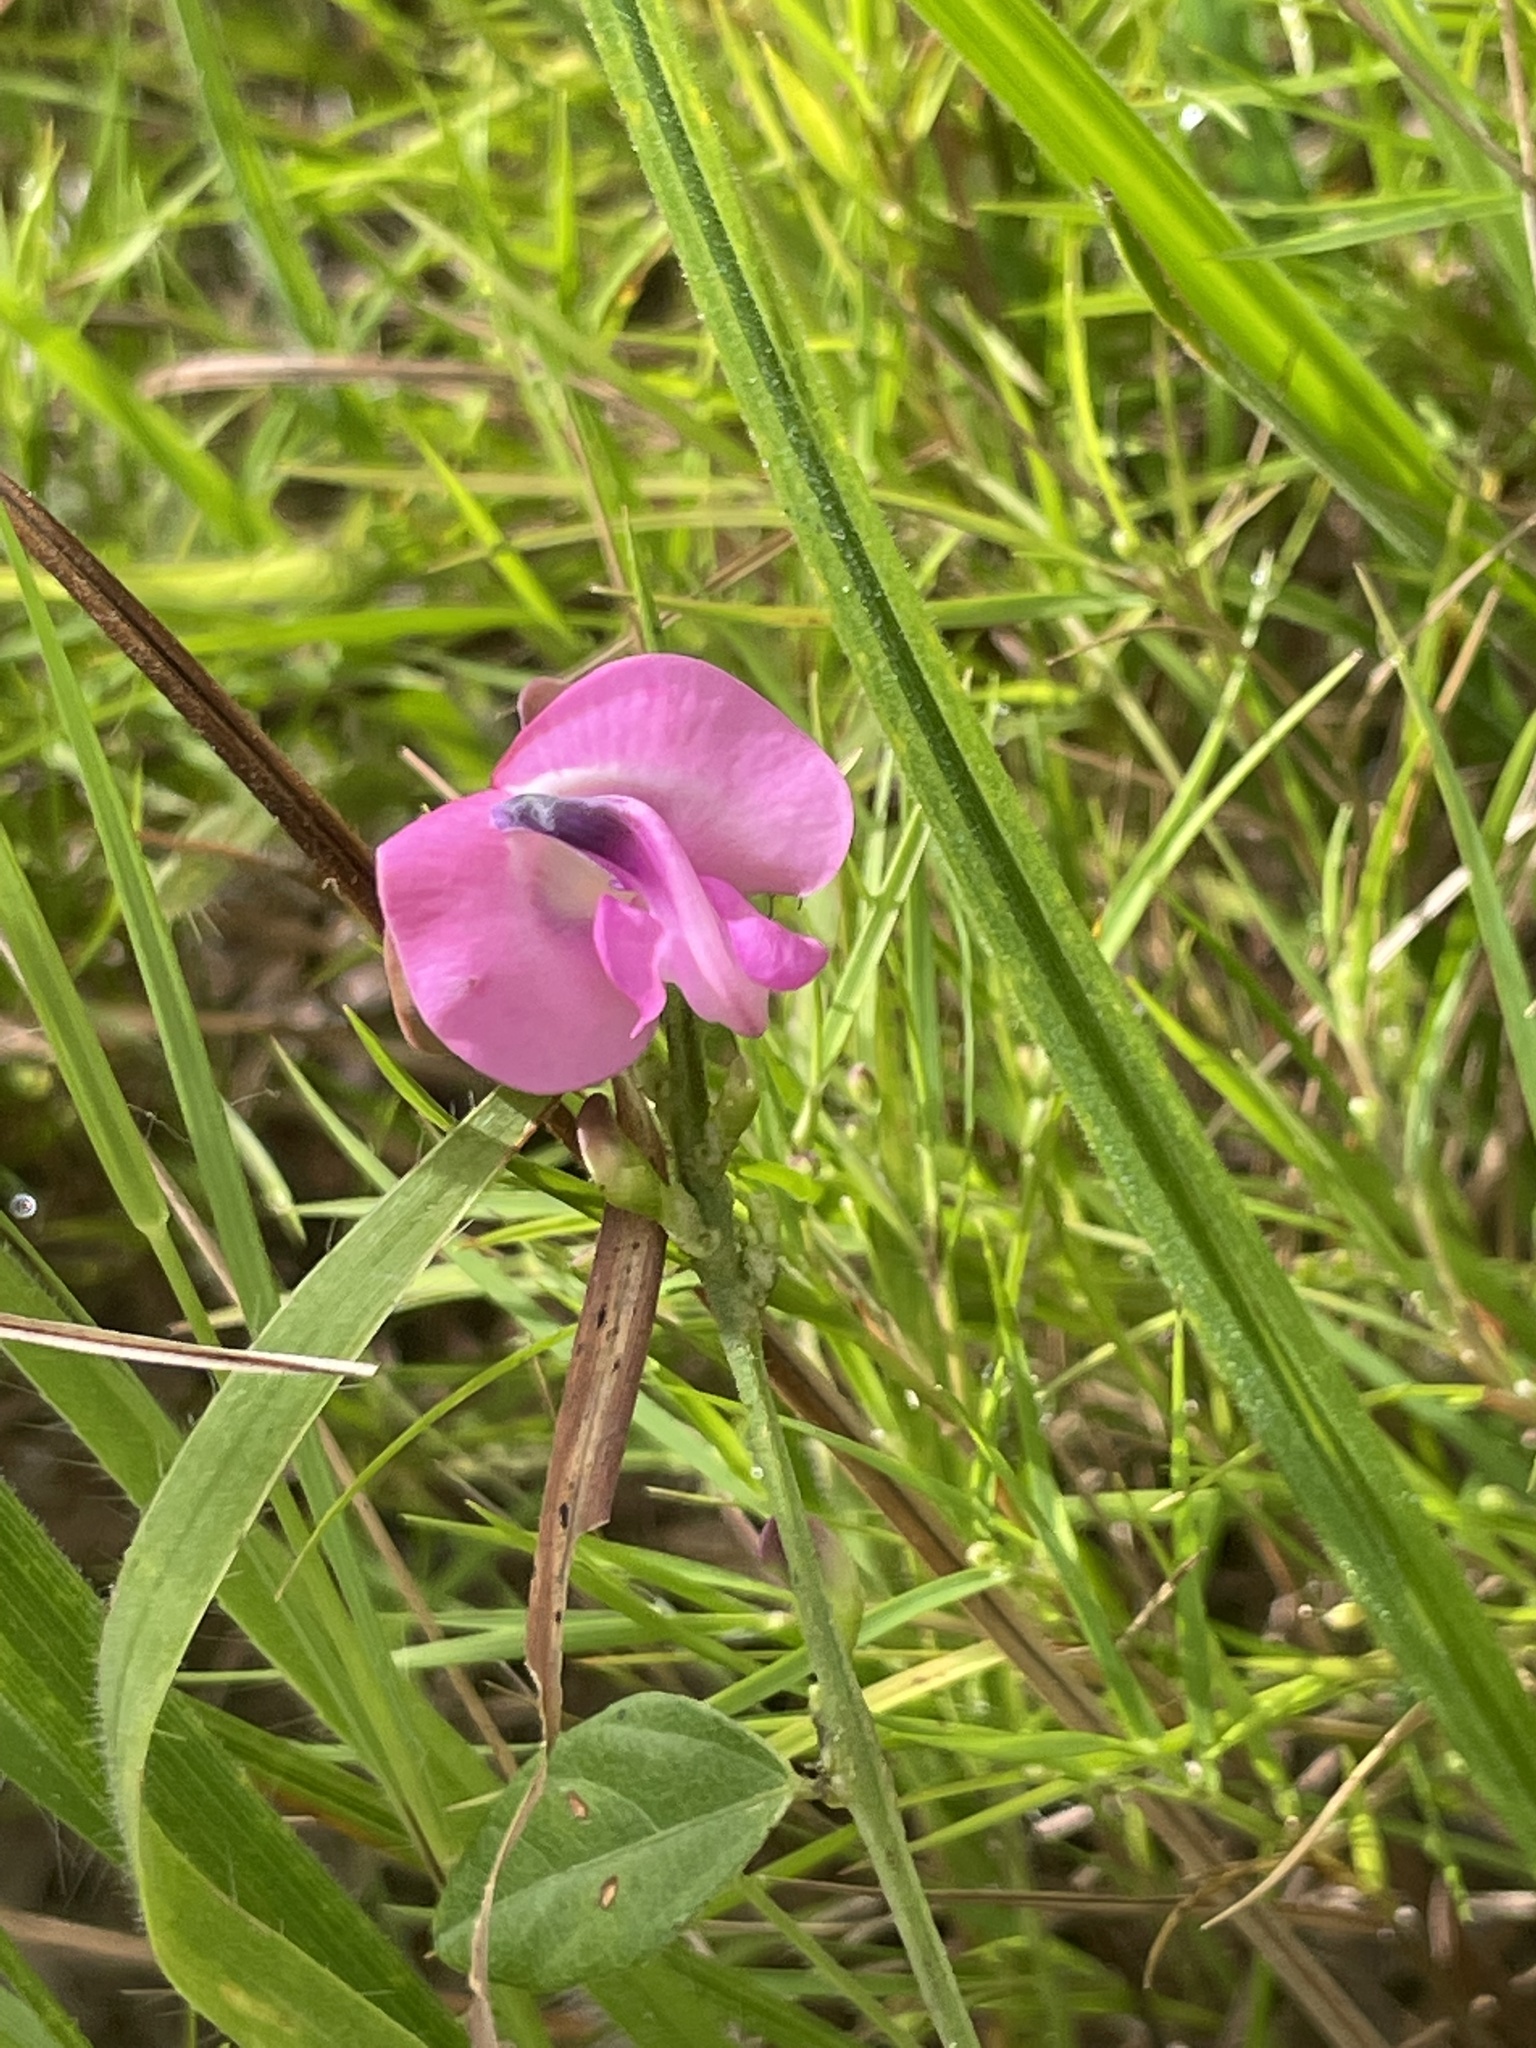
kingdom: Plantae
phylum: Tracheophyta
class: Magnoliopsida
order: Fabales
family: Fabaceae
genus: Strophostyles
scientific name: Strophostyles umbellata
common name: Perennial wild bean
